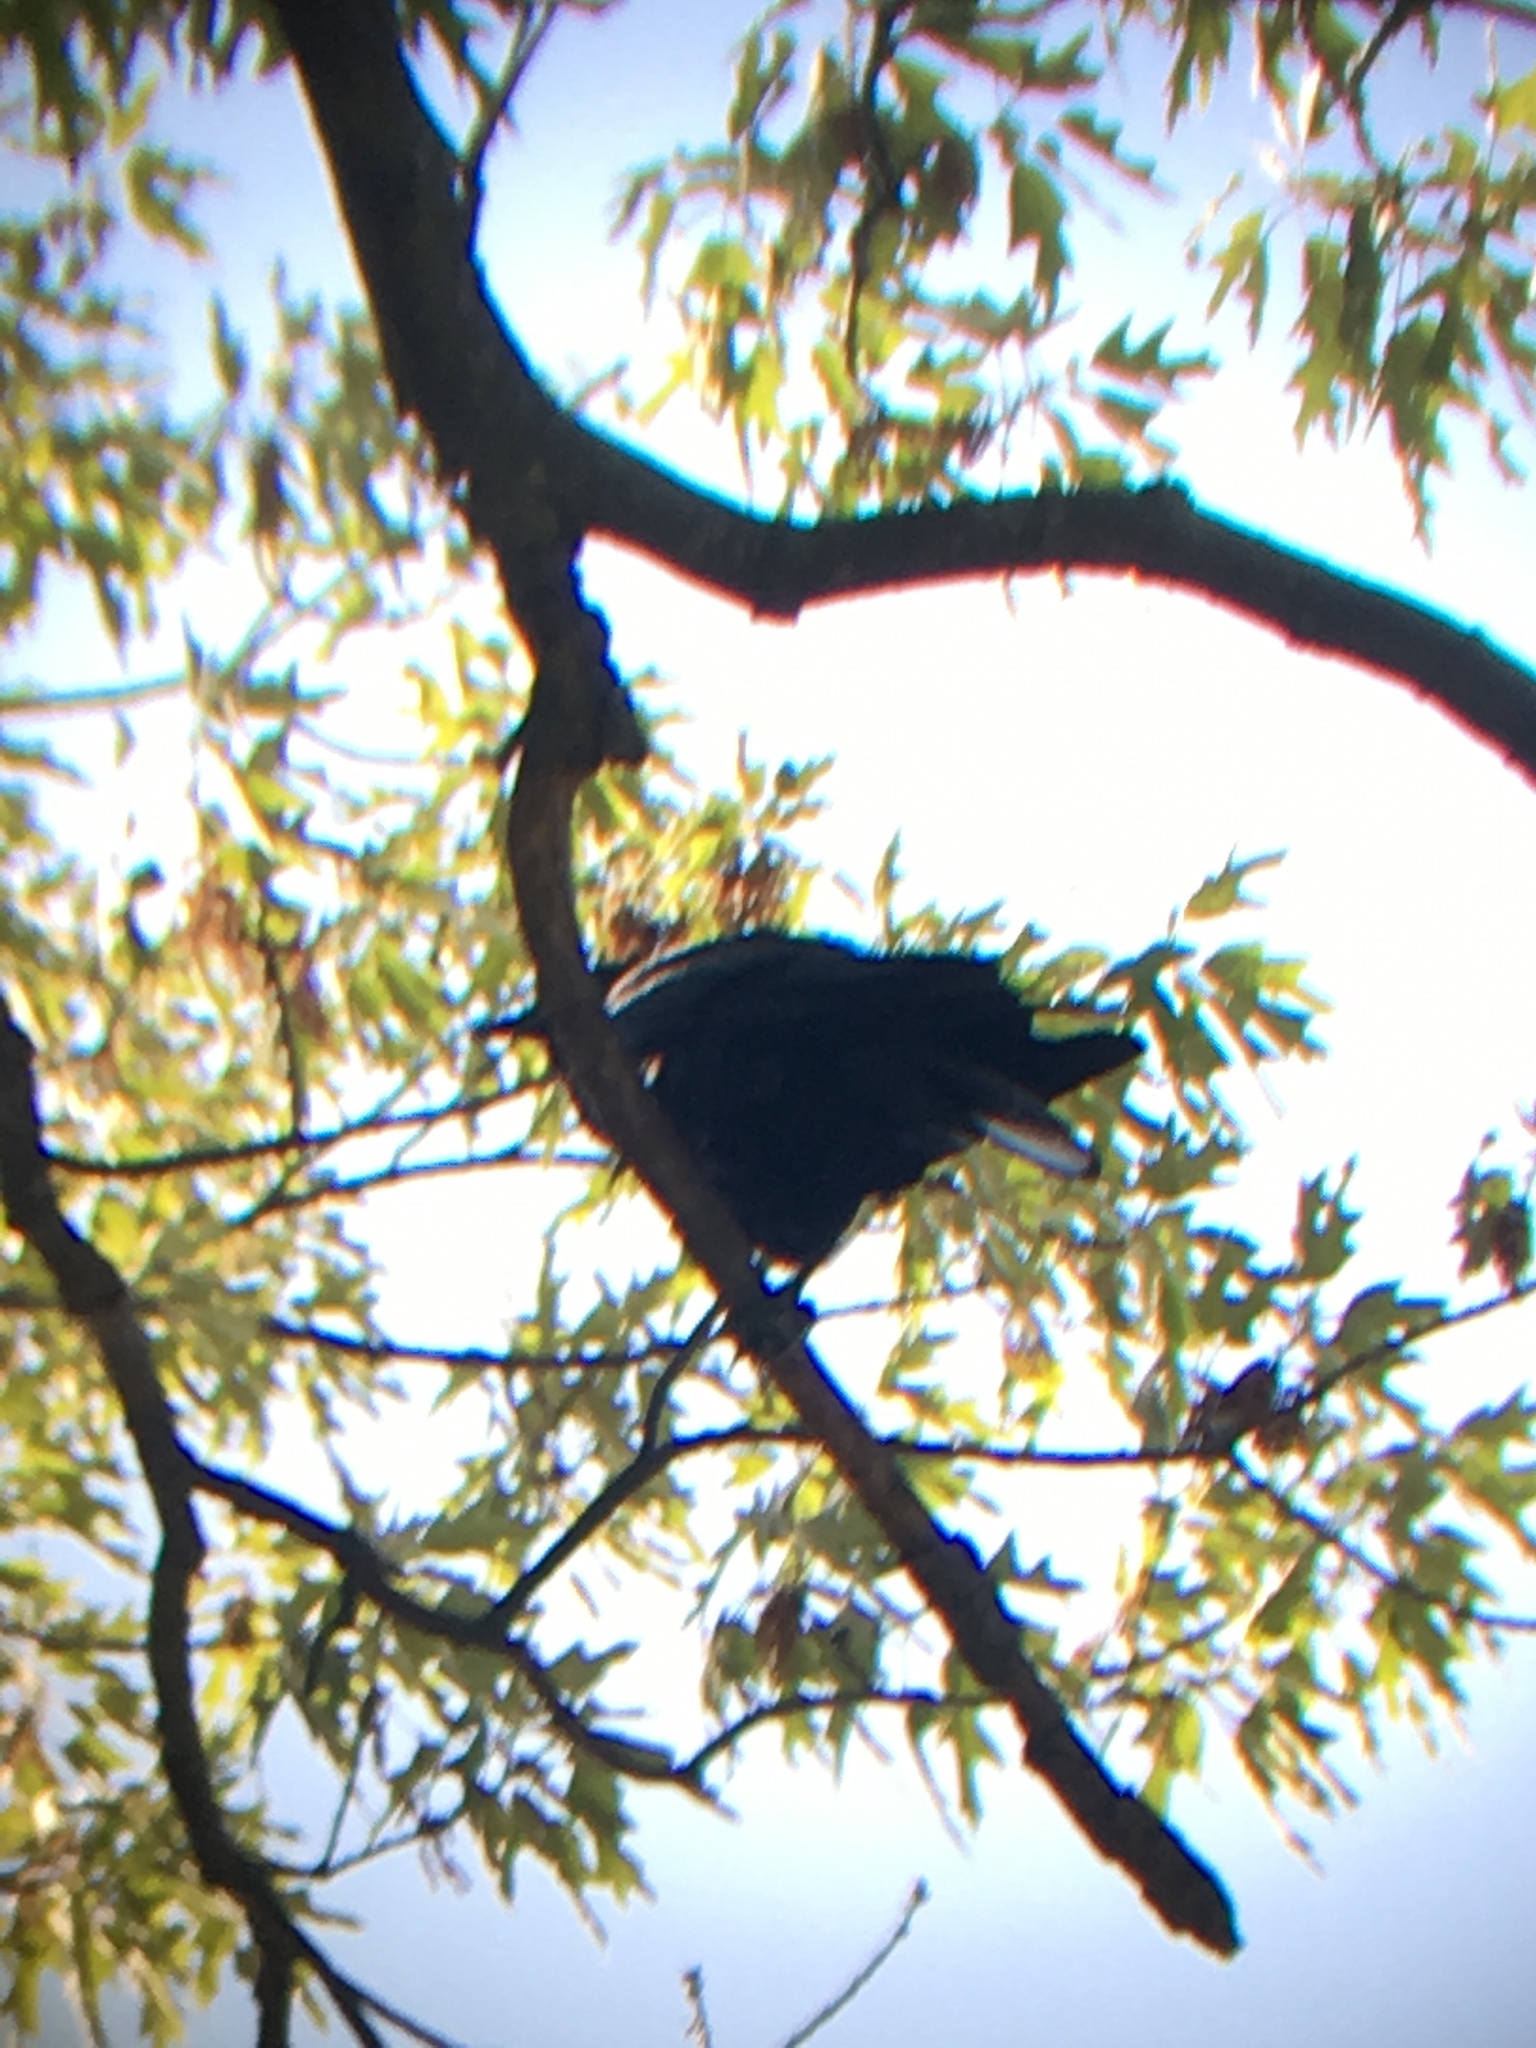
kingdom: Animalia
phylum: Chordata
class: Aves
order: Passeriformes
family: Corvidae
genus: Corvus
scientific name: Corvus ossifragus
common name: Fish crow
